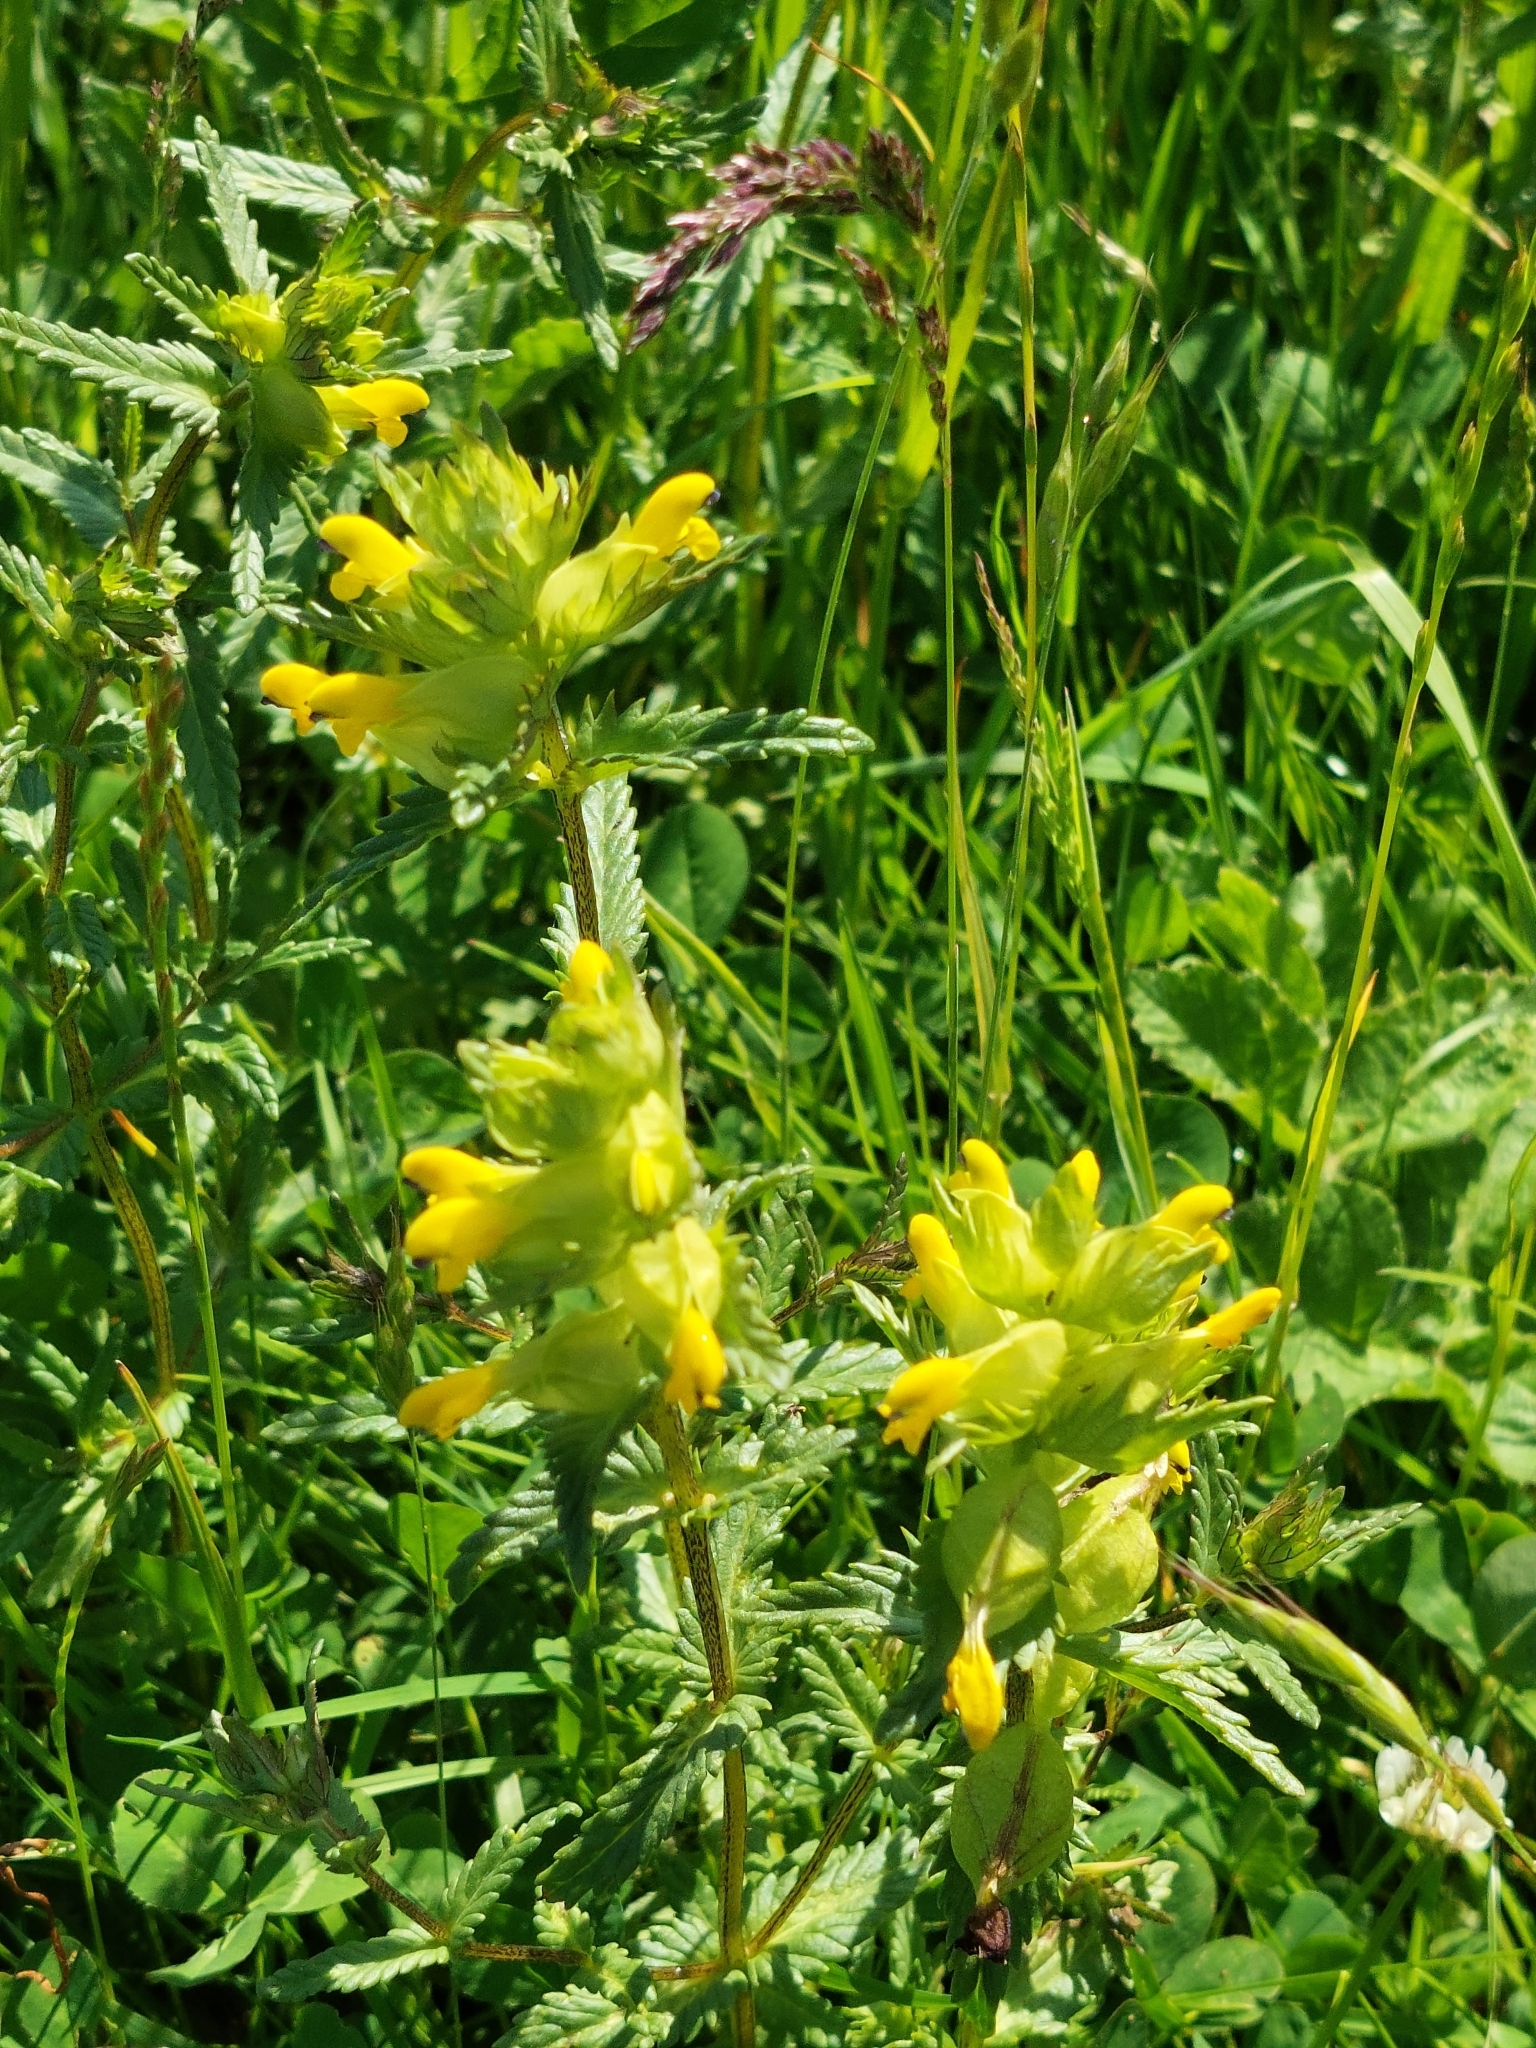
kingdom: Plantae
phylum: Tracheophyta
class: Magnoliopsida
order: Lamiales
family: Orobanchaceae
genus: Rhinanthus
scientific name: Rhinanthus minor
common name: Yellow-rattle
